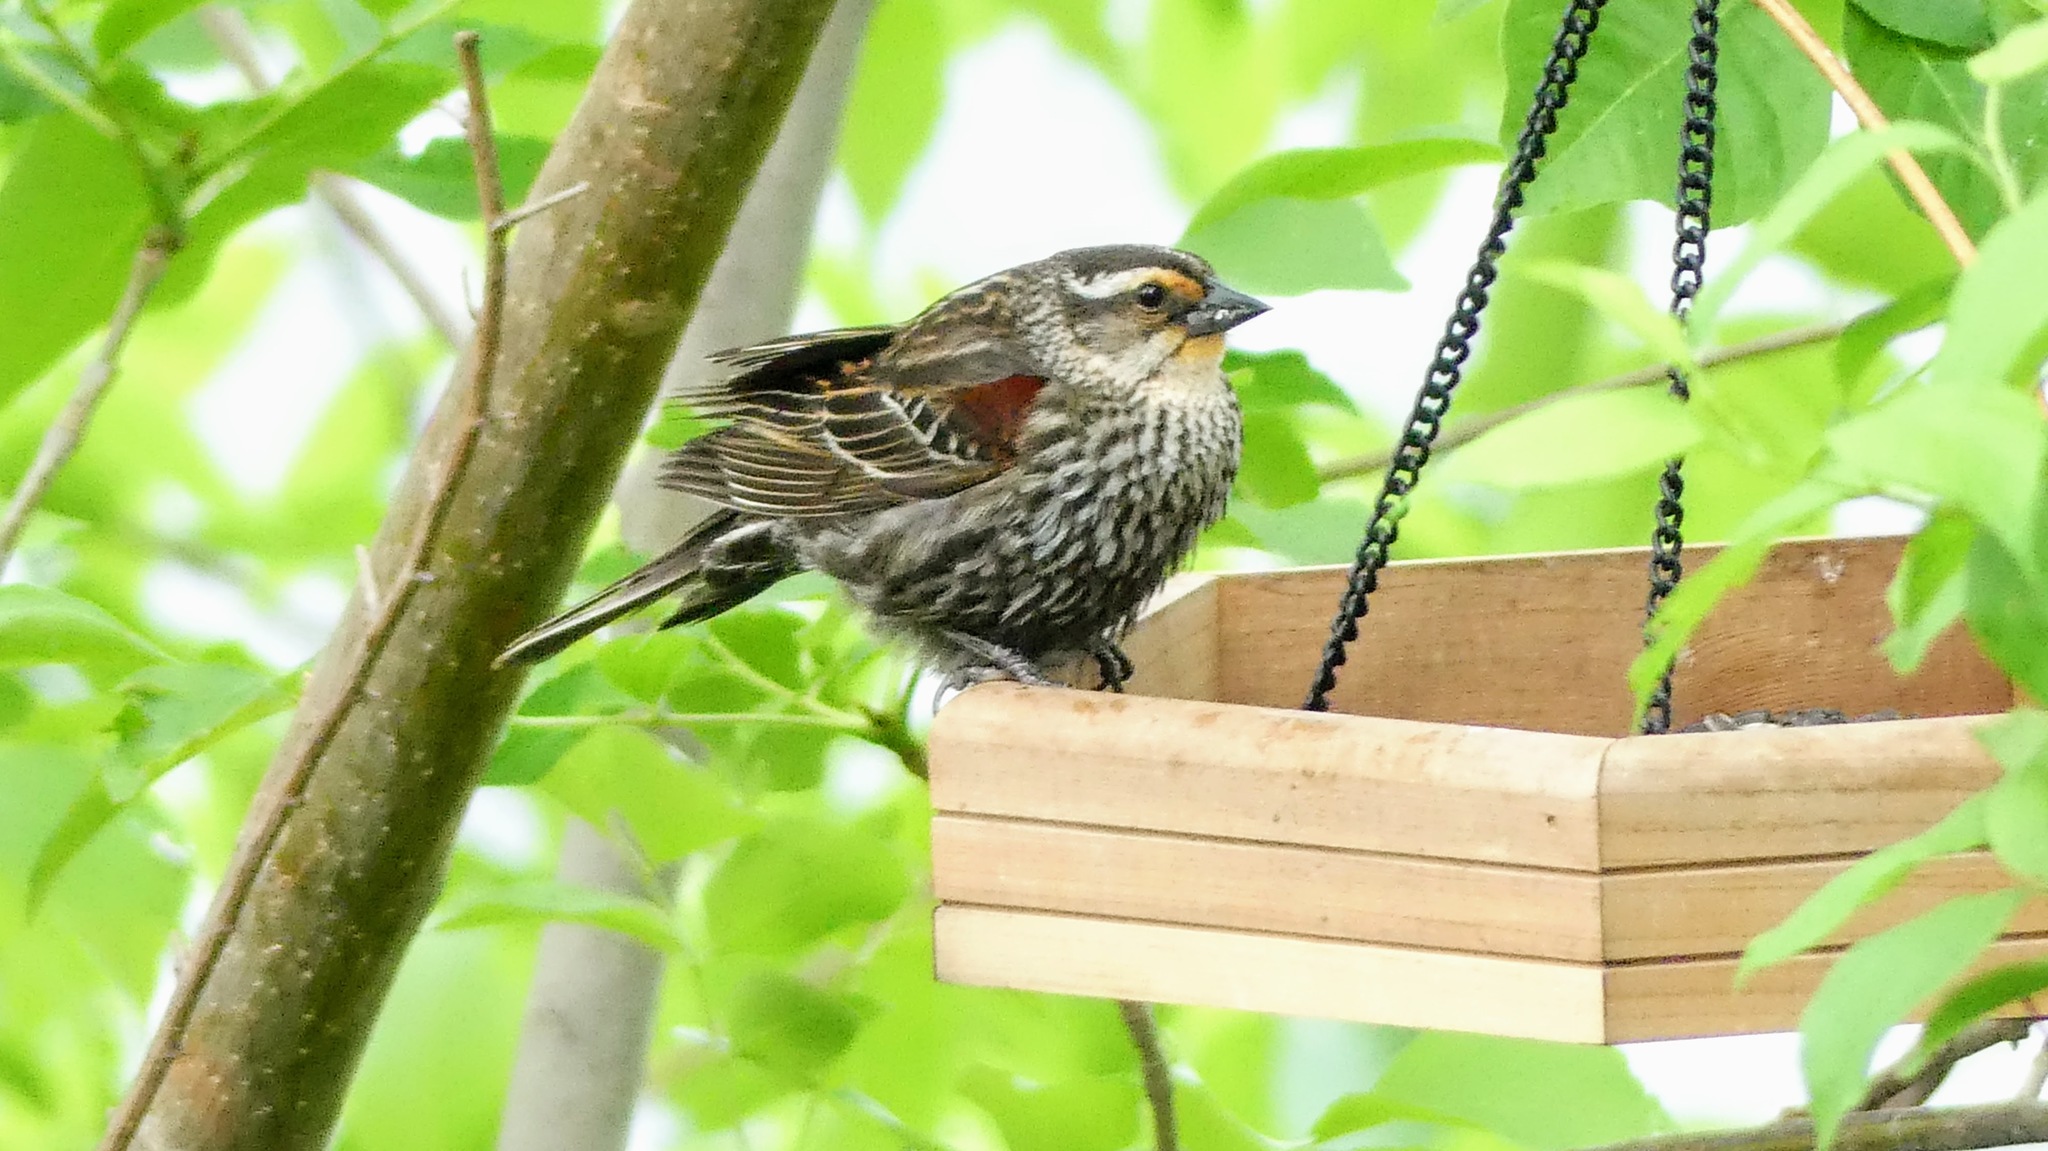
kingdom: Animalia
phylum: Chordata
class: Aves
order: Passeriformes
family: Icteridae
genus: Agelaius
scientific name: Agelaius phoeniceus
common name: Red-winged blackbird
